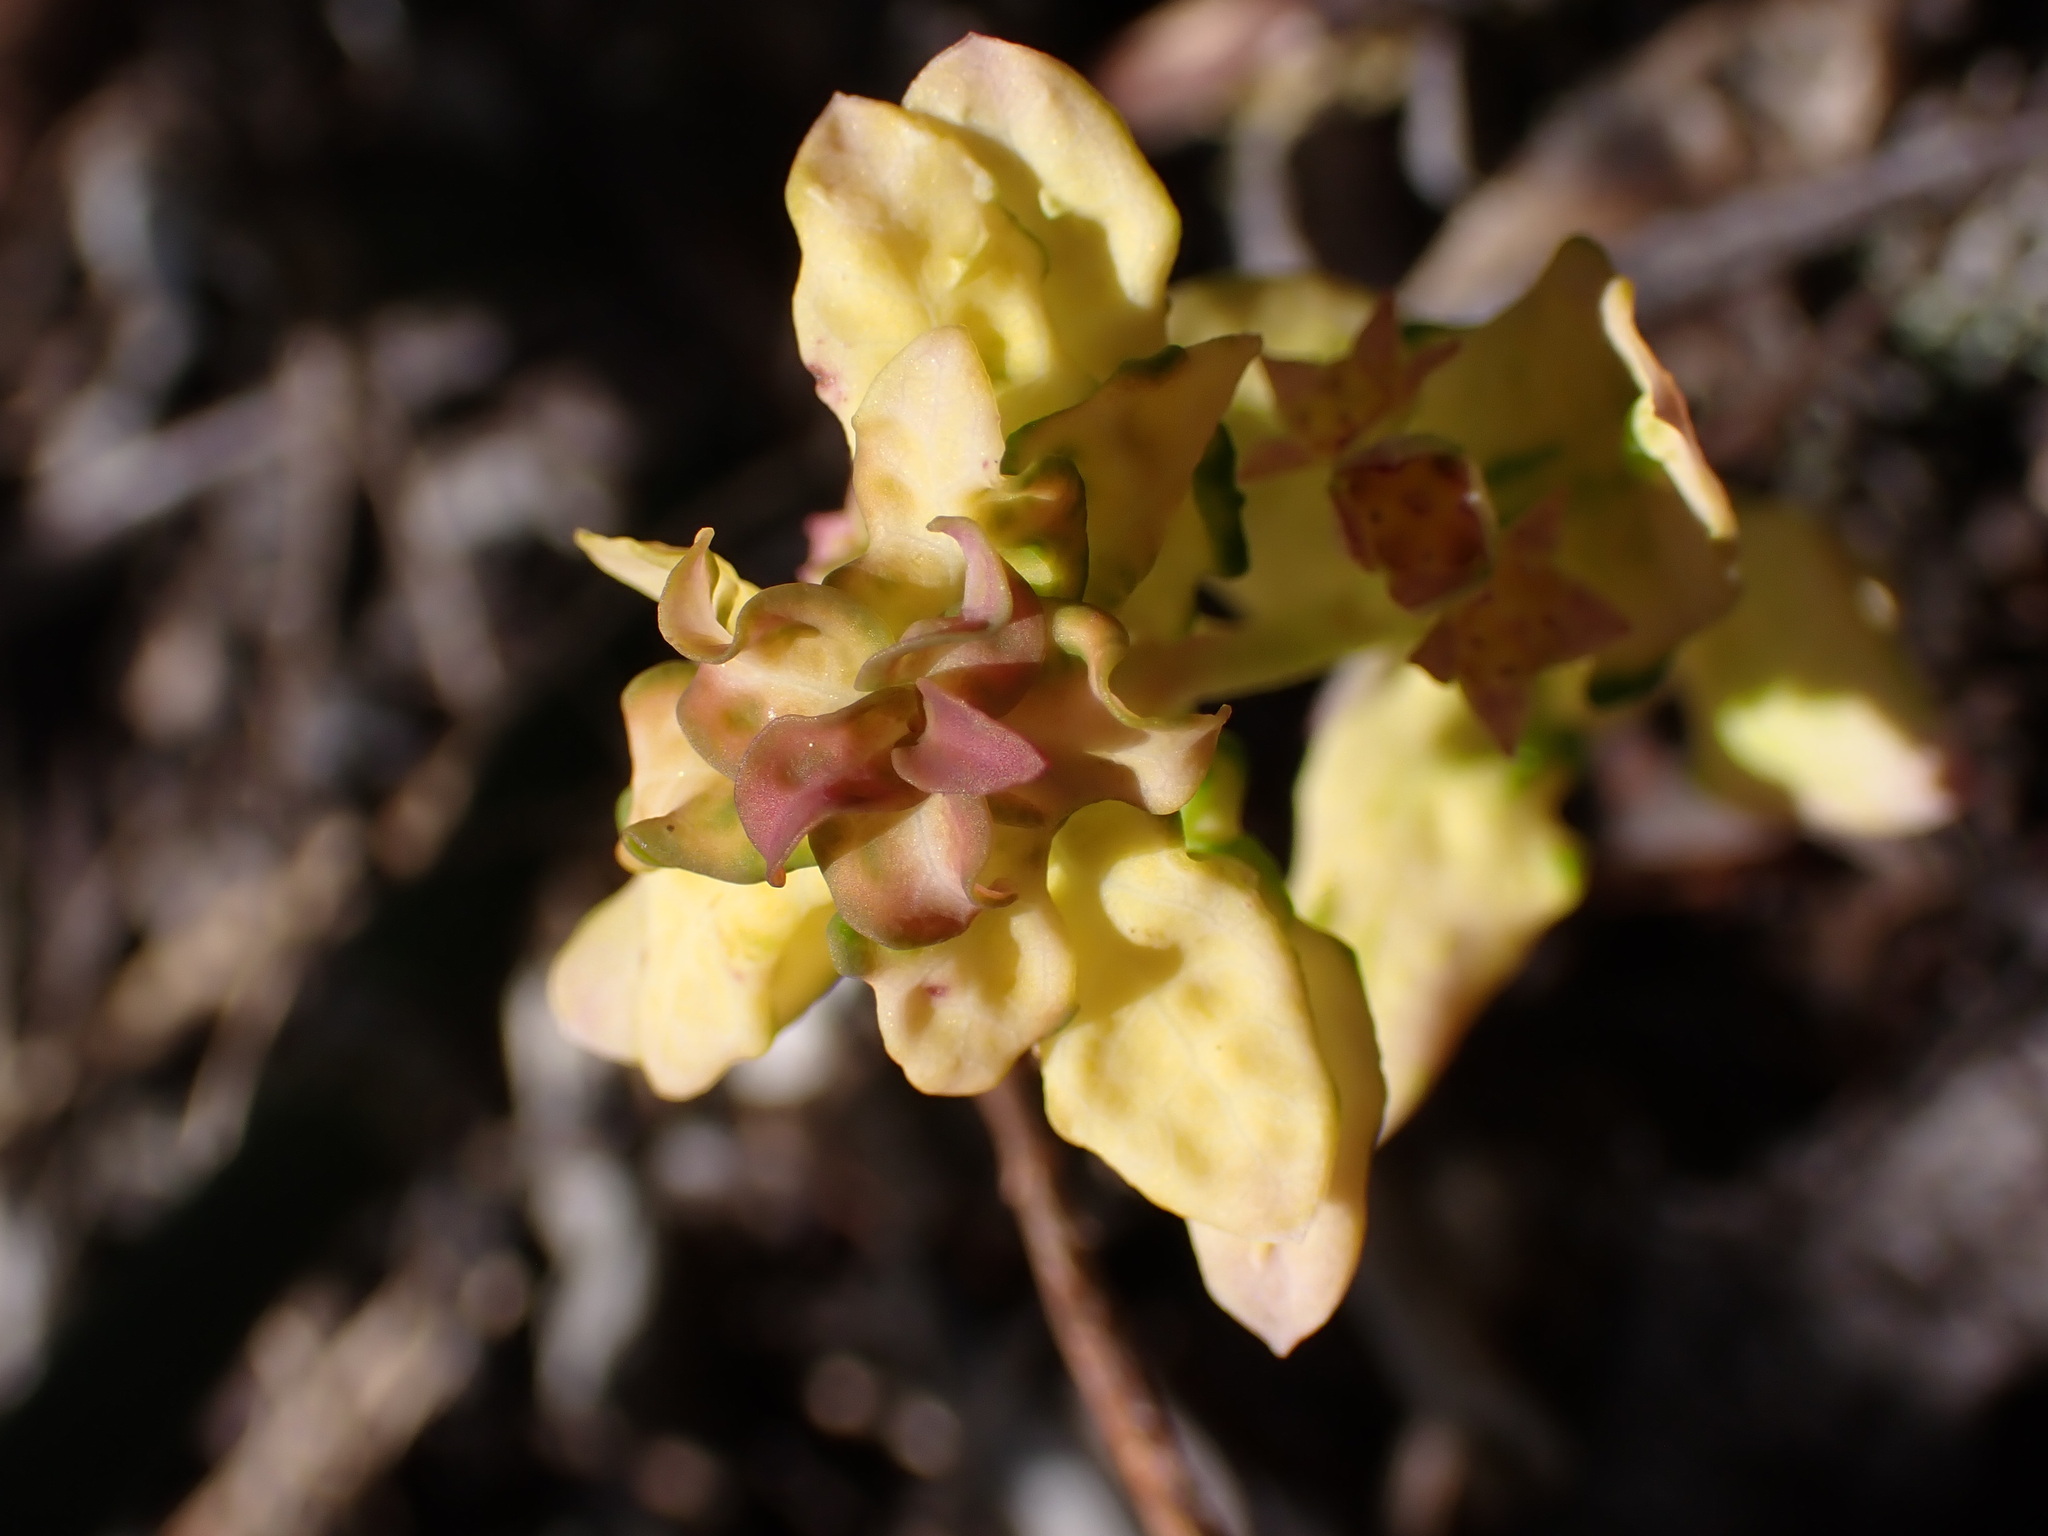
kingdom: Plantae
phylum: Tracheophyta
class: Magnoliopsida
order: Santalales
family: Comandraceae
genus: Geocaulon
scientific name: Geocaulon lividum
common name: Earthberry
